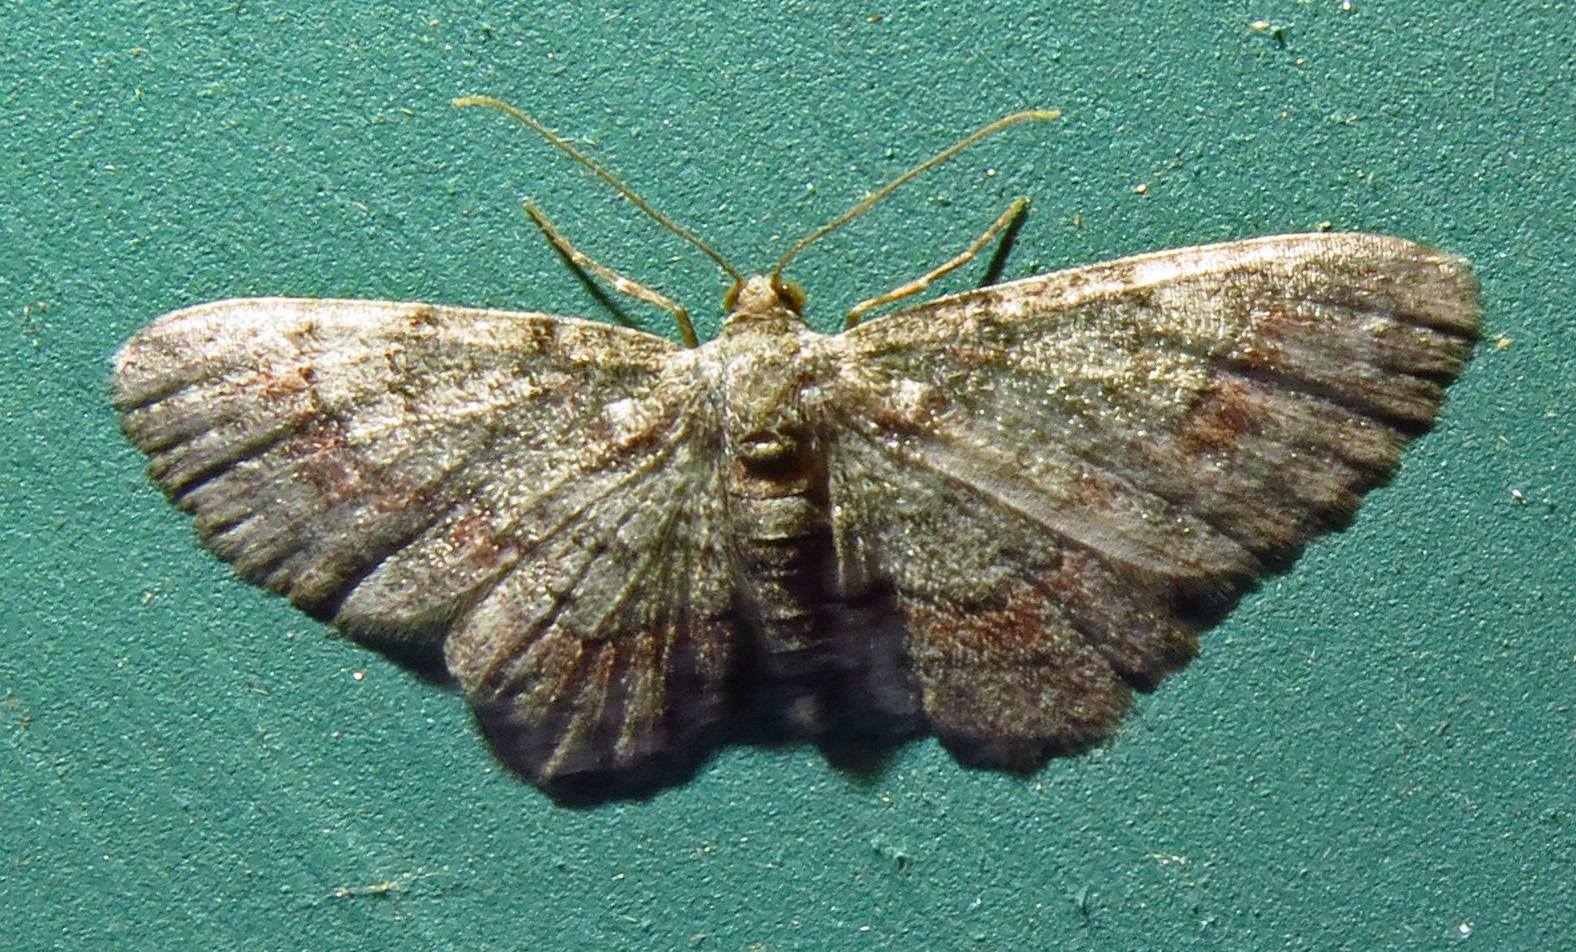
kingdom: Animalia
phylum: Arthropoda
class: Insecta
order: Lepidoptera
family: Geometridae
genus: Glenoides
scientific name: Glenoides texanaria
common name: Texas gray
